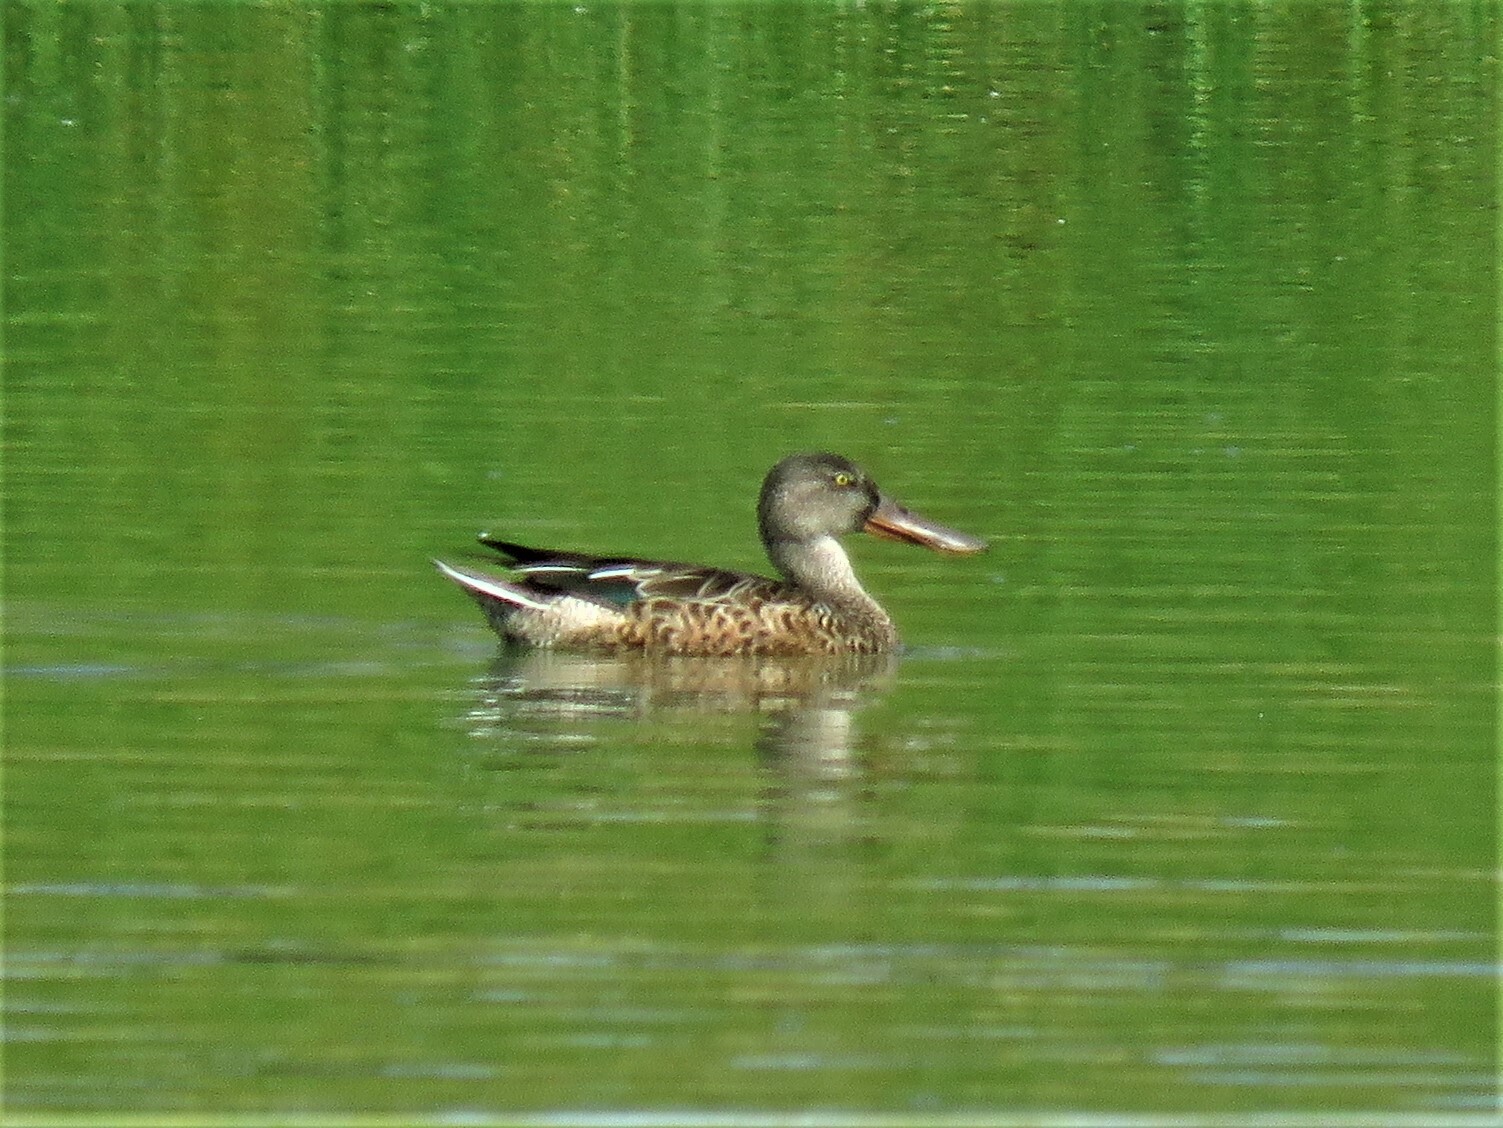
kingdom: Animalia
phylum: Chordata
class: Aves
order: Anseriformes
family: Anatidae
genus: Spatula
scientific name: Spatula clypeata
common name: Northern shoveler
